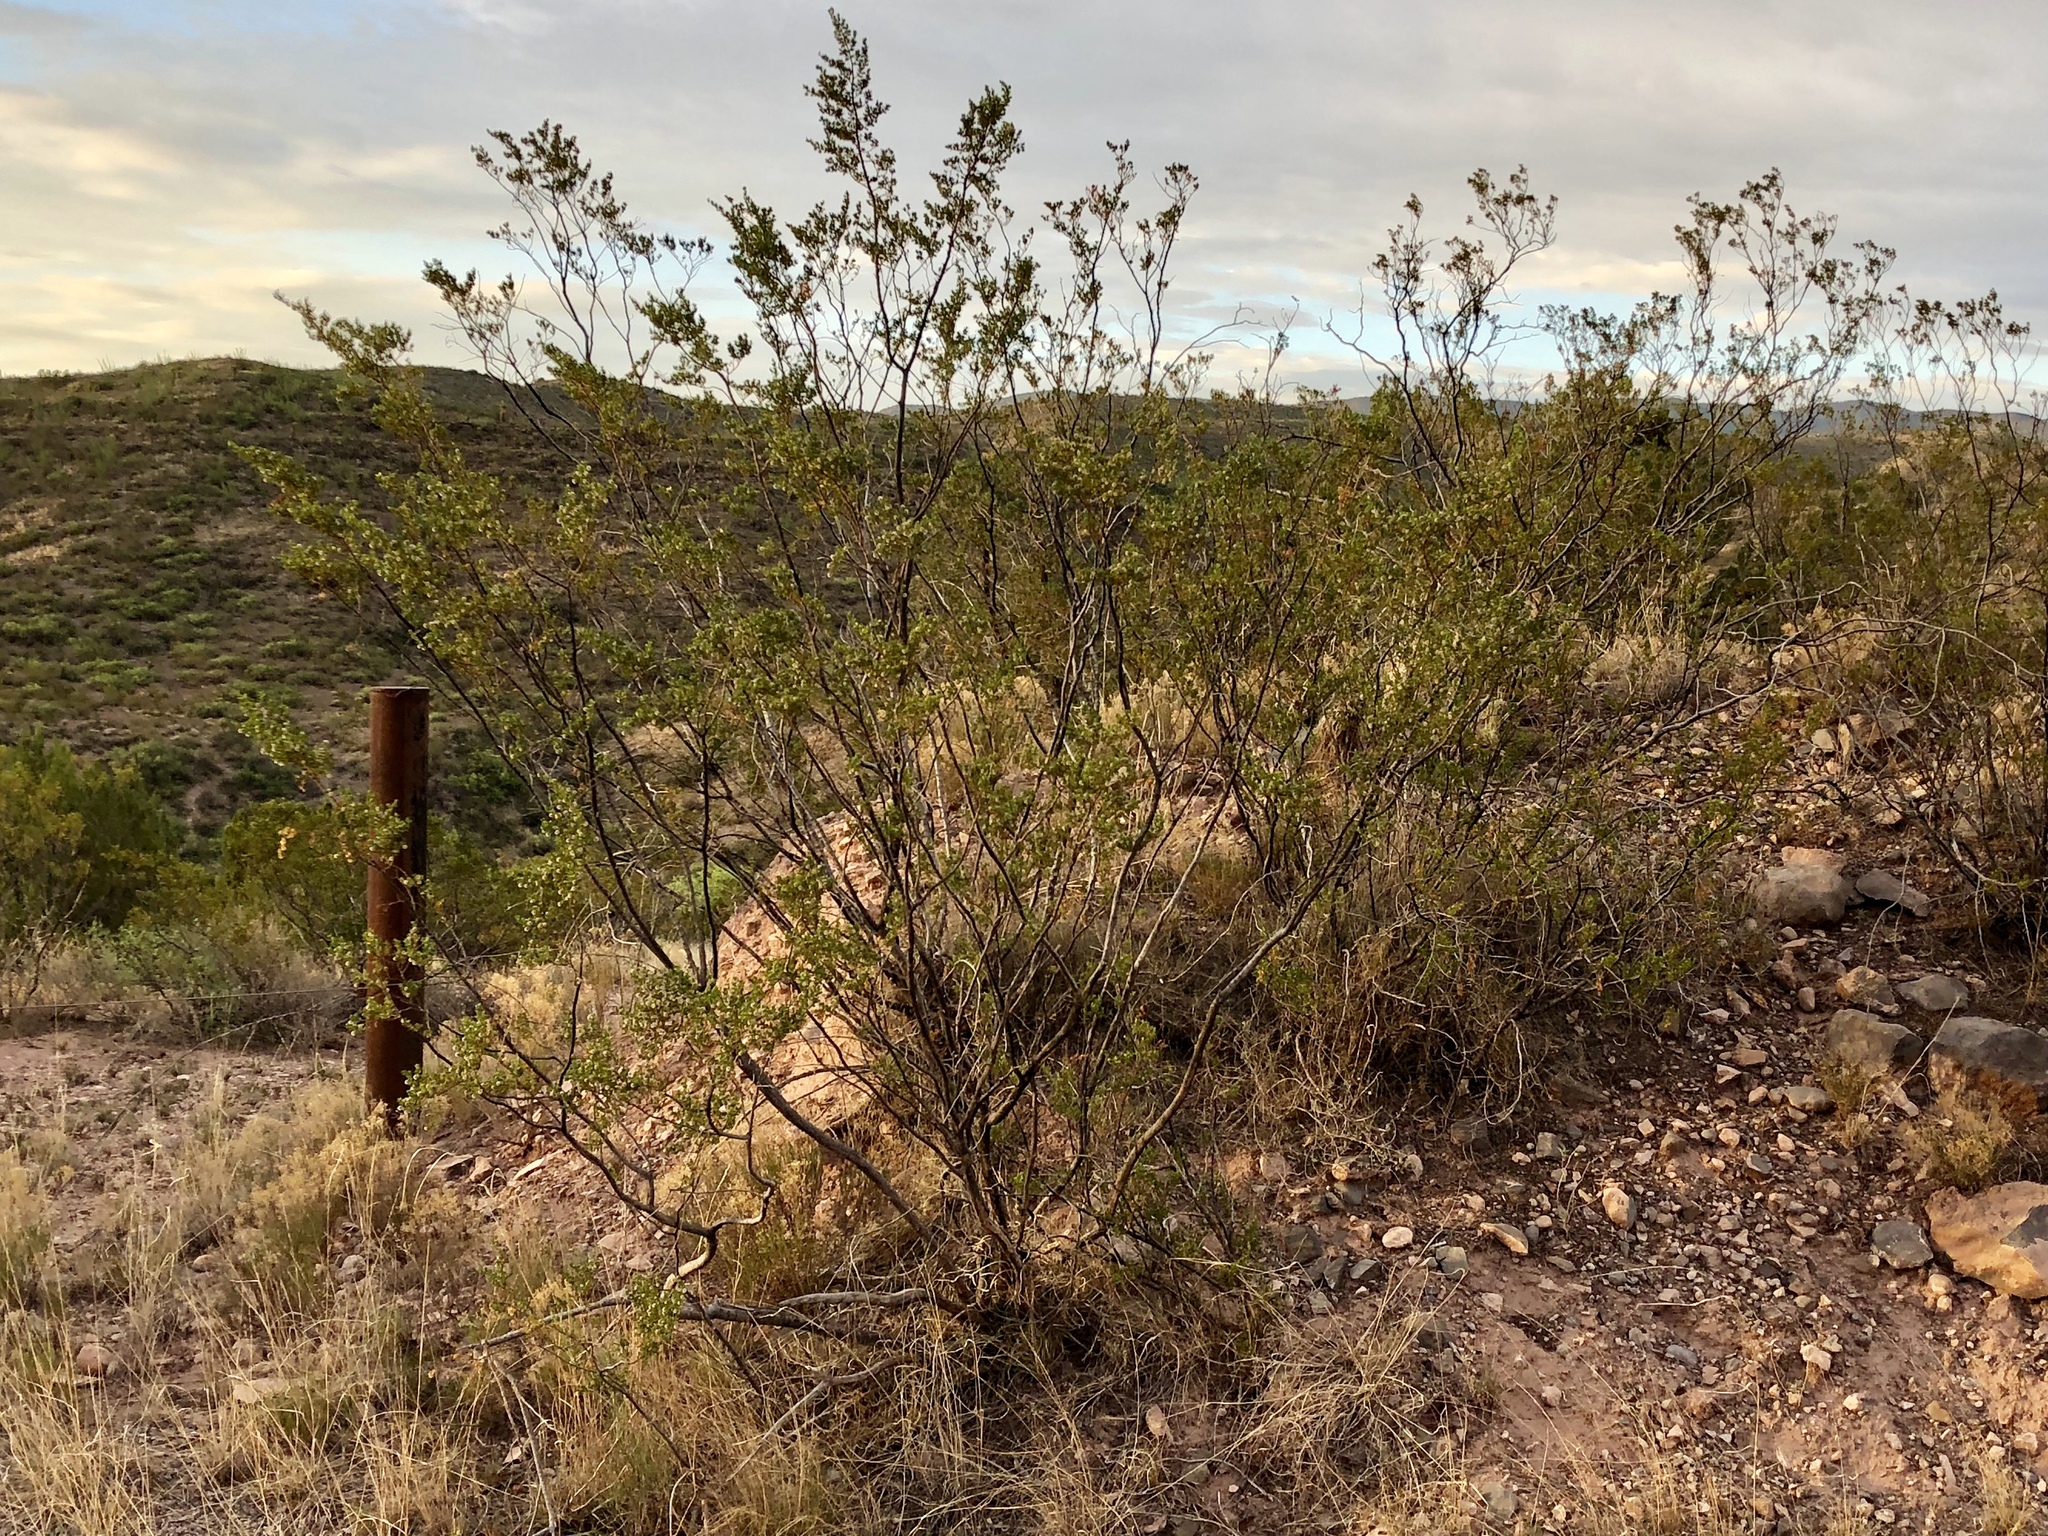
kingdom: Plantae
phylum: Tracheophyta
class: Magnoliopsida
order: Zygophyllales
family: Zygophyllaceae
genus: Larrea
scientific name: Larrea tridentata
